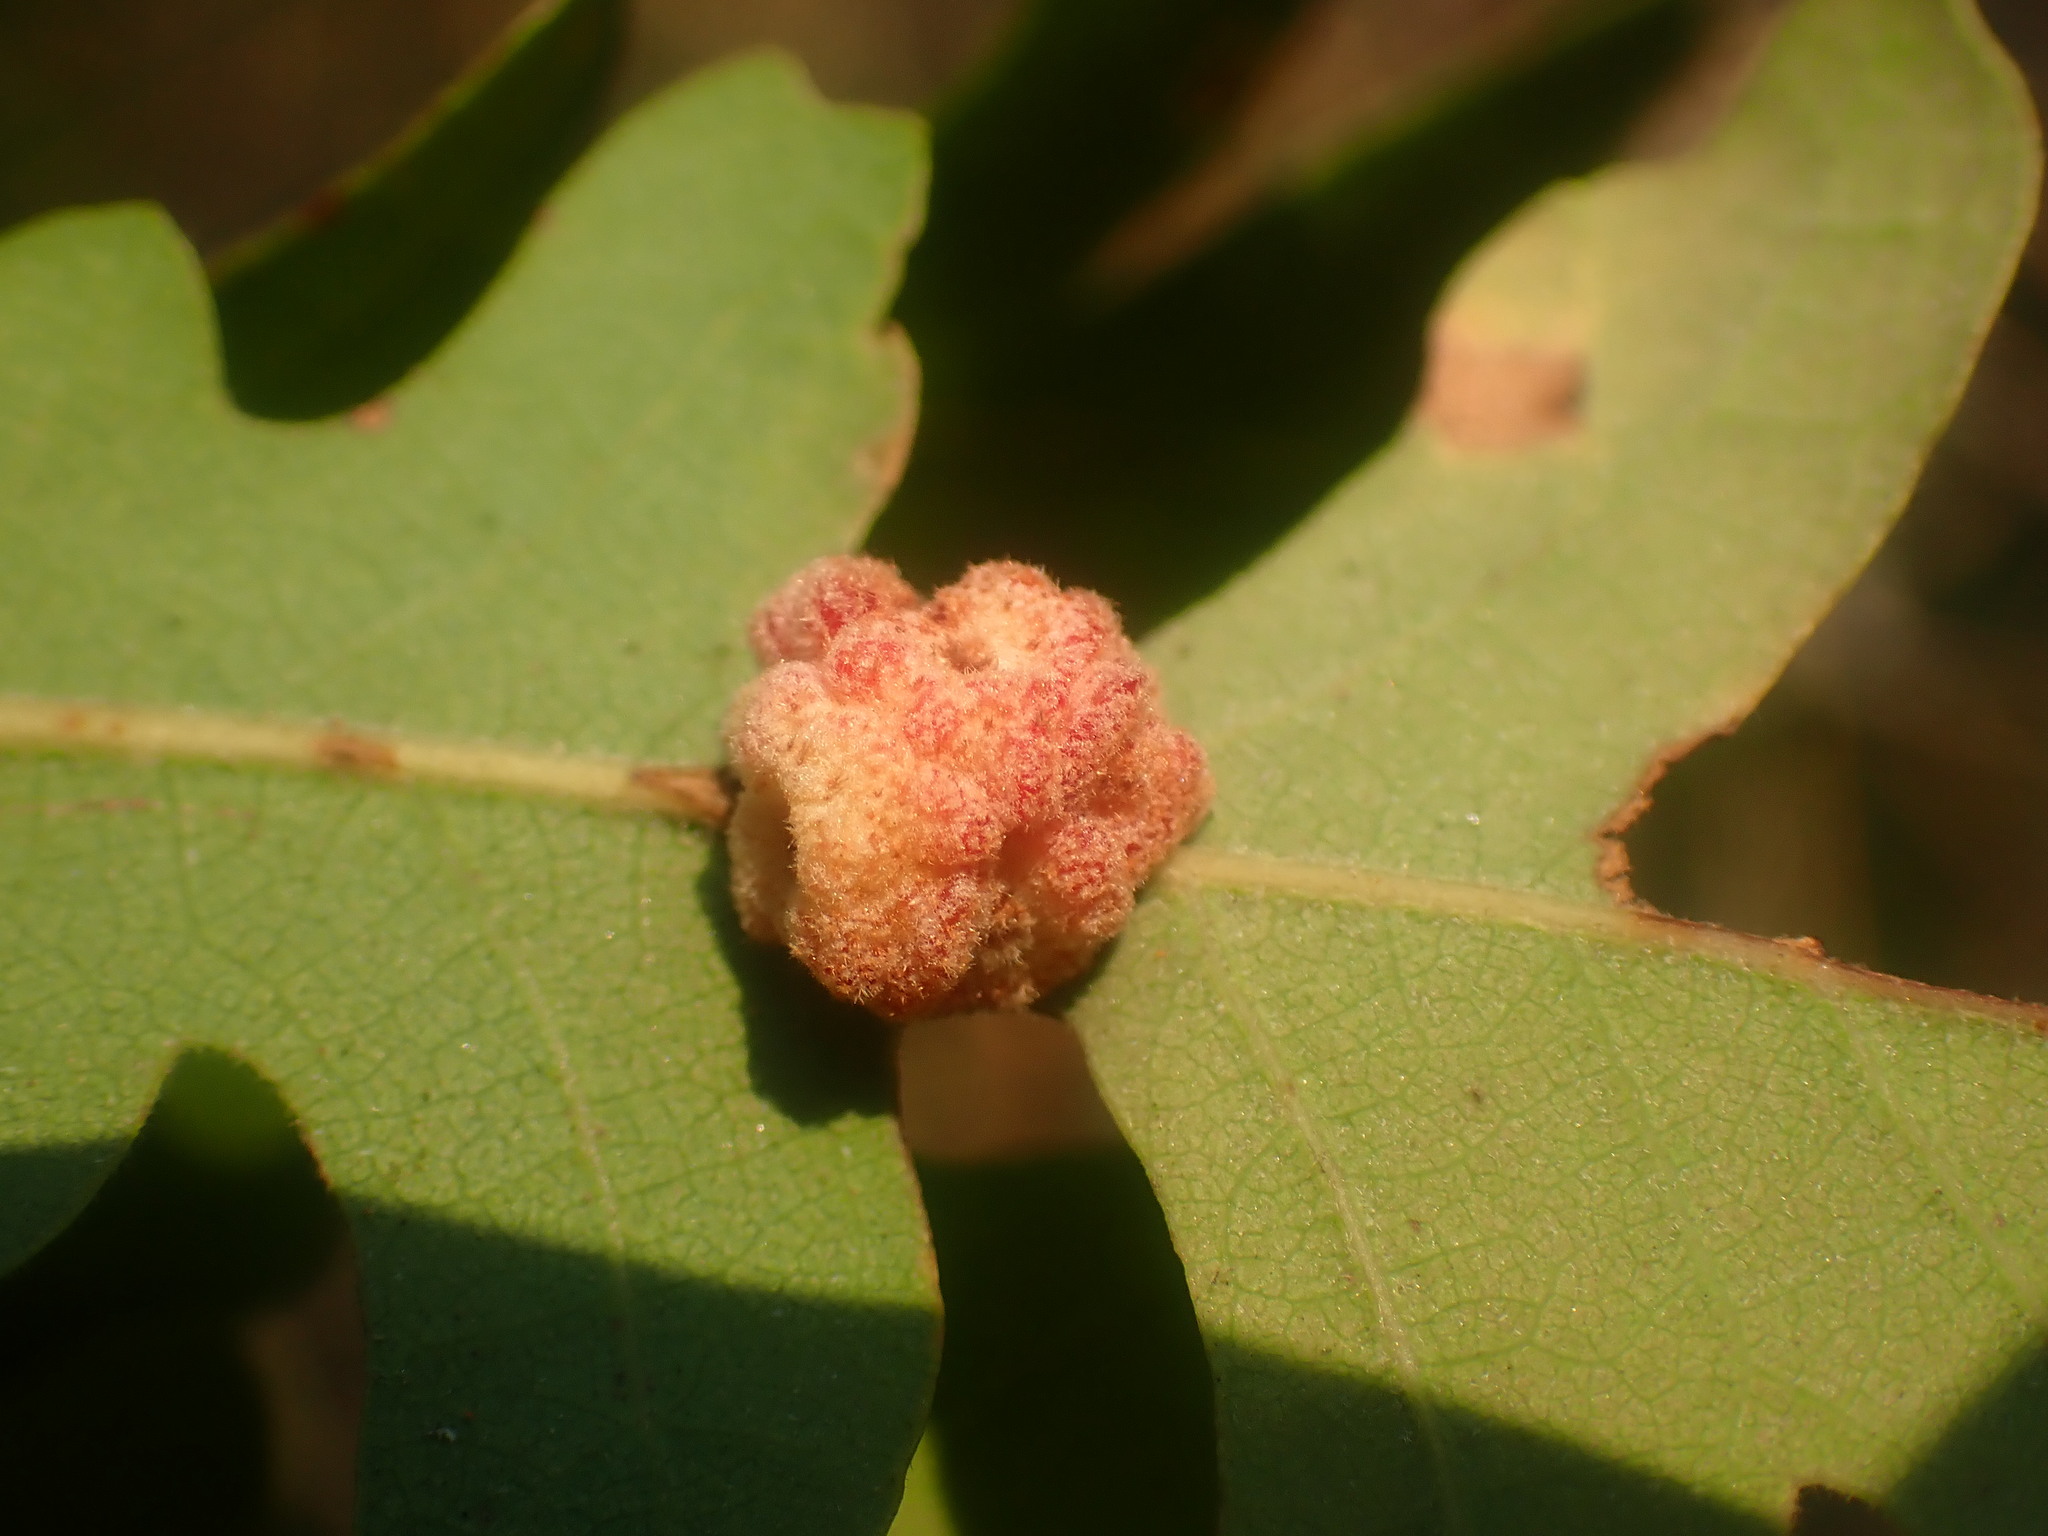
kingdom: Animalia
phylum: Arthropoda
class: Insecta
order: Hymenoptera
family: Cynipidae
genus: Andricus
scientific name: Andricus
